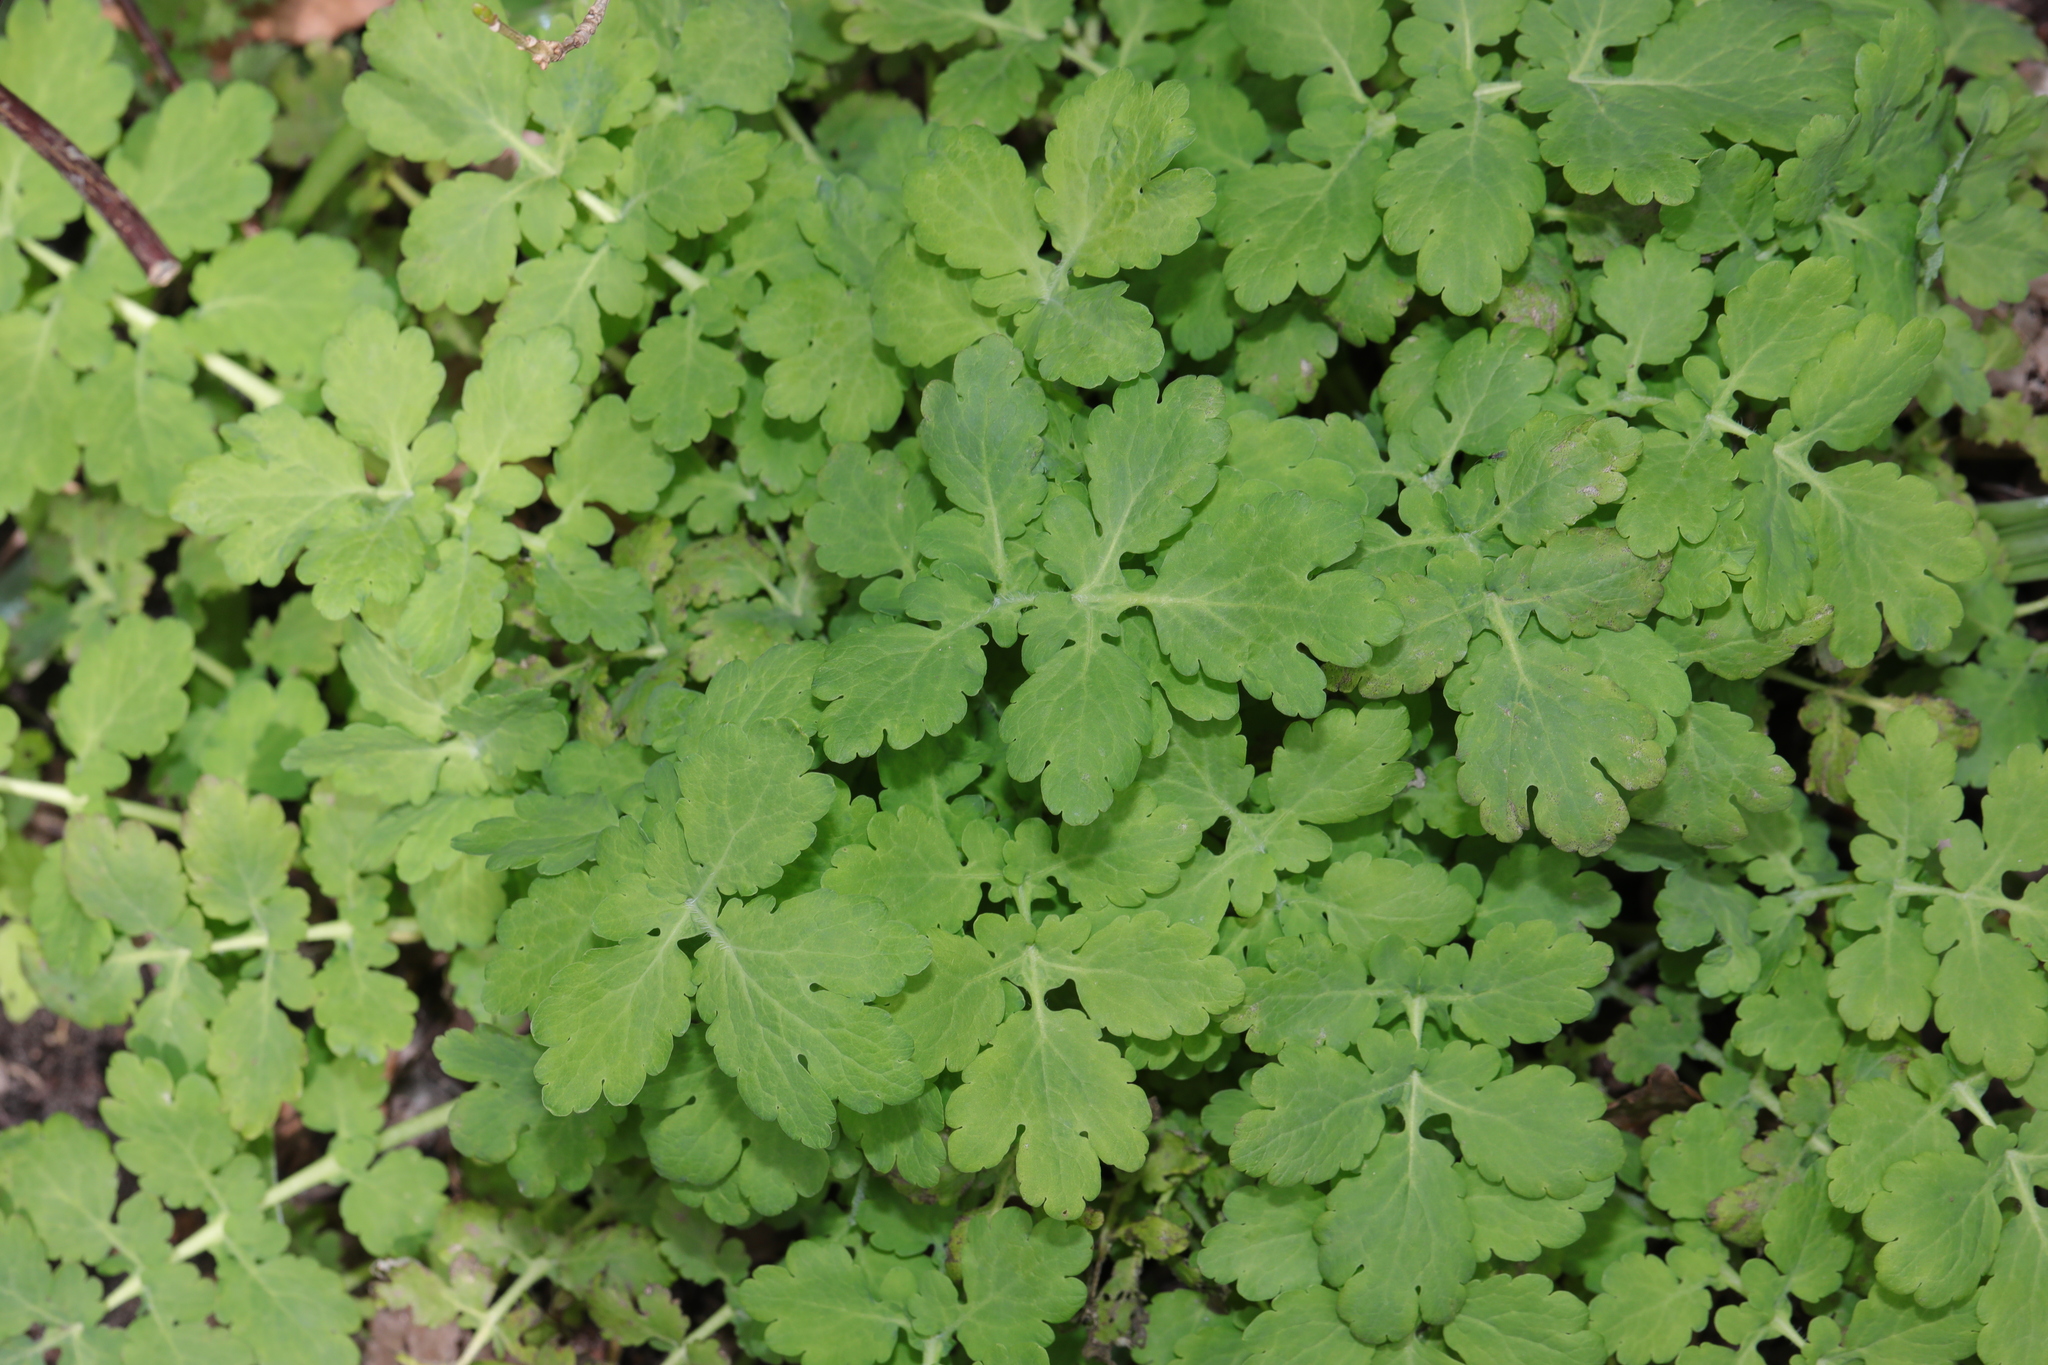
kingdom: Plantae
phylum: Tracheophyta
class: Magnoliopsida
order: Ranunculales
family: Papaveraceae
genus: Chelidonium
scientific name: Chelidonium majus
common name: Greater celandine
